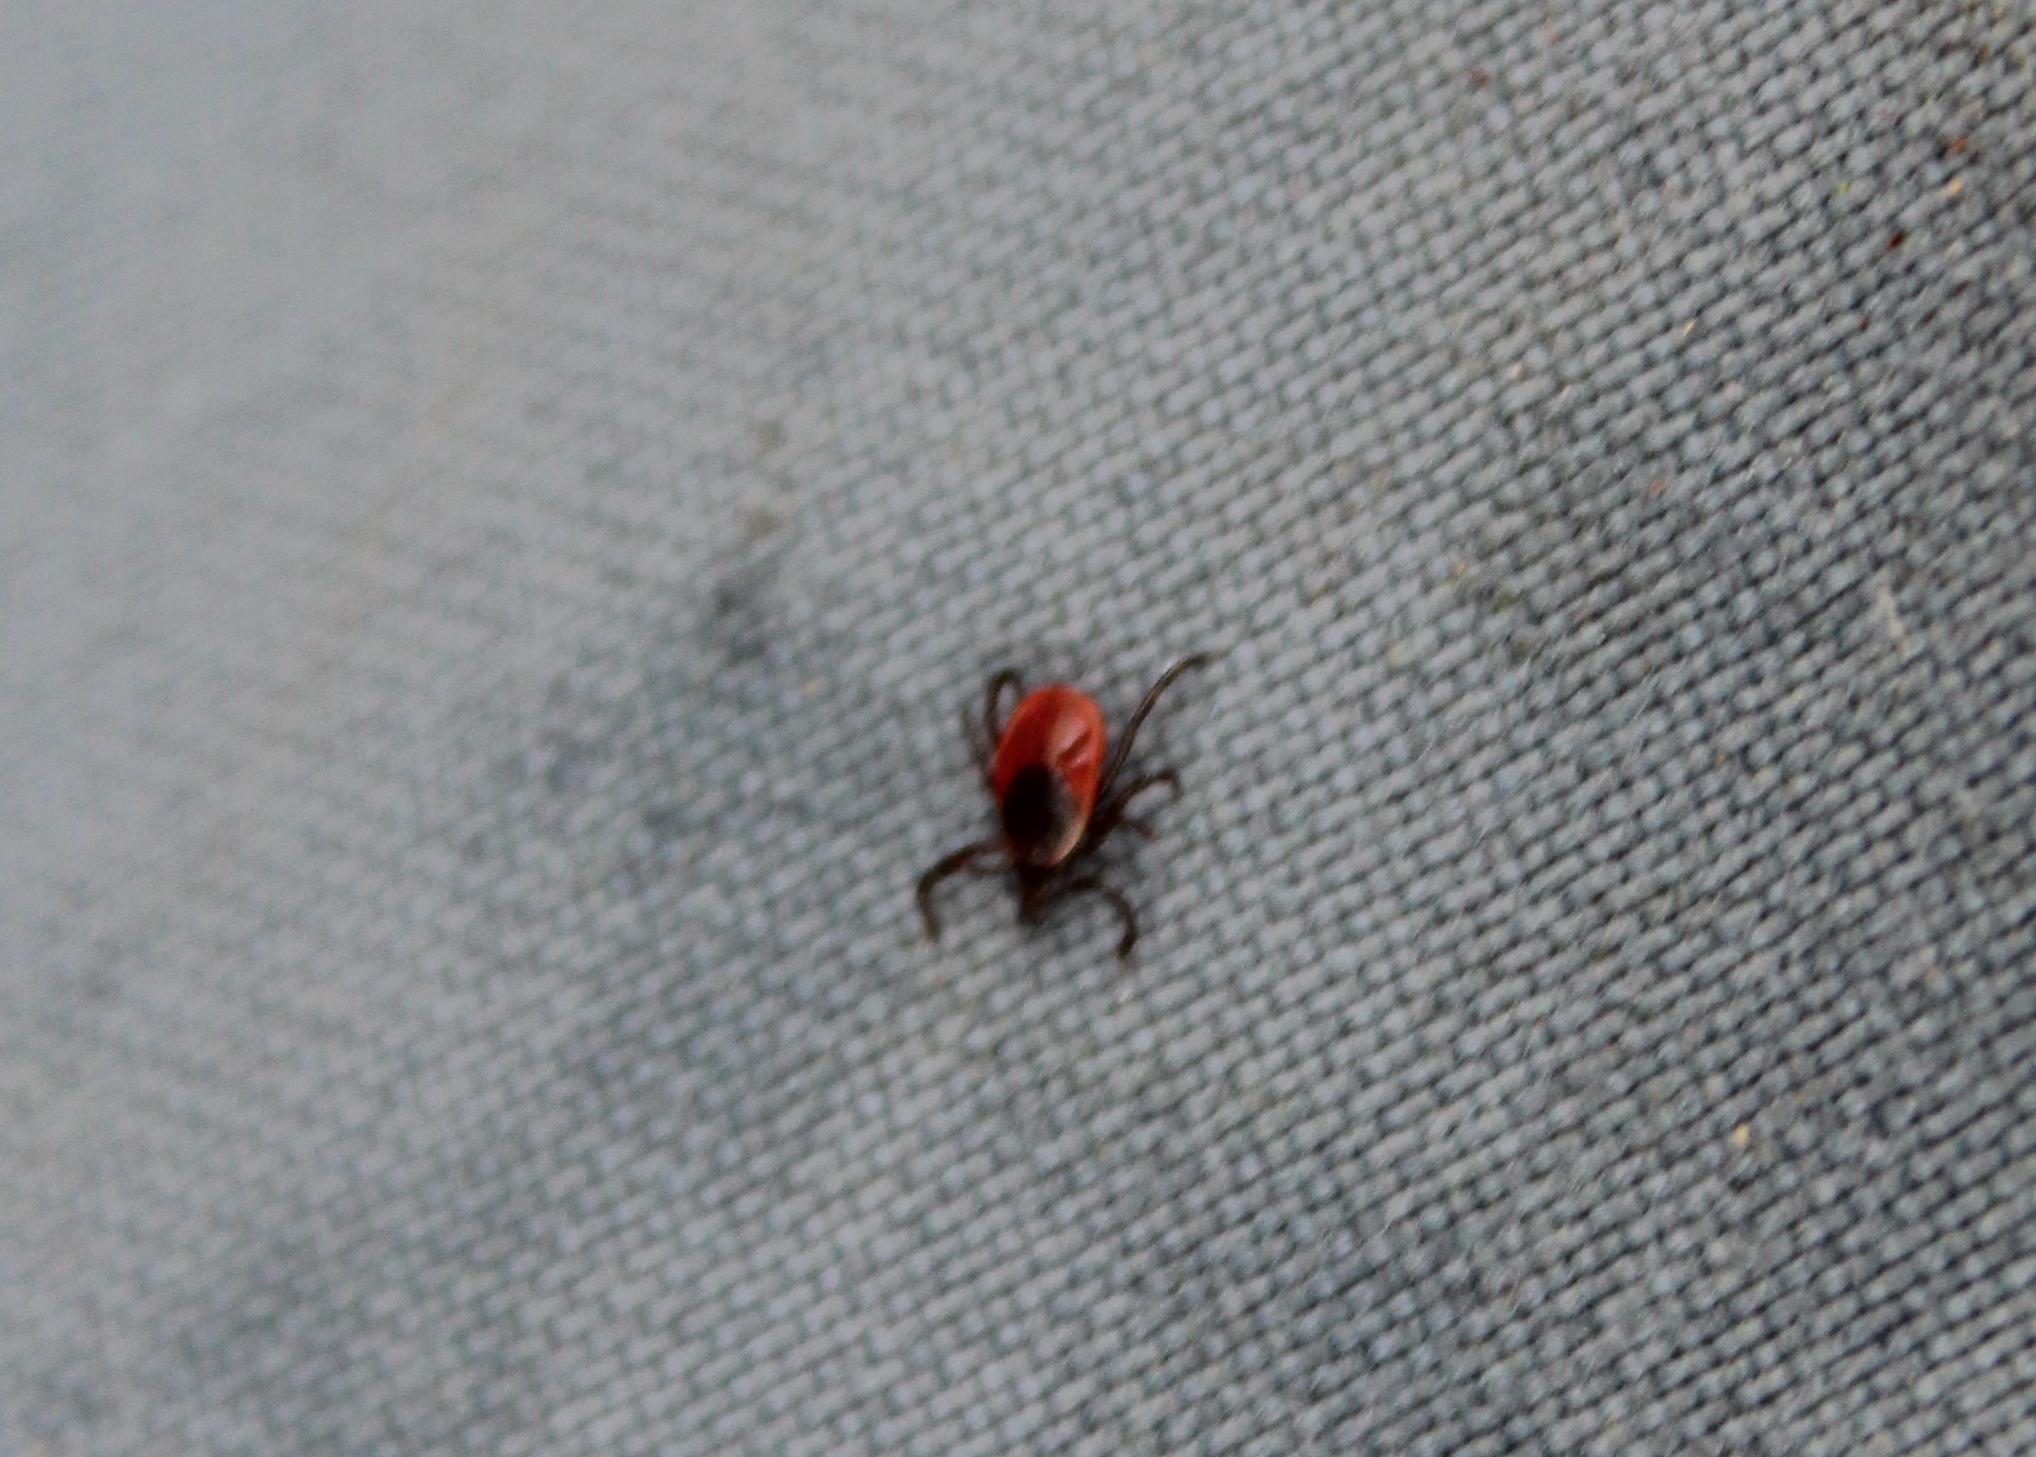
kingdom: Animalia
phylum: Arthropoda
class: Arachnida
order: Ixodida
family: Ixodidae
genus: Ixodes
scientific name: Ixodes scapularis
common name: Black legged tick
